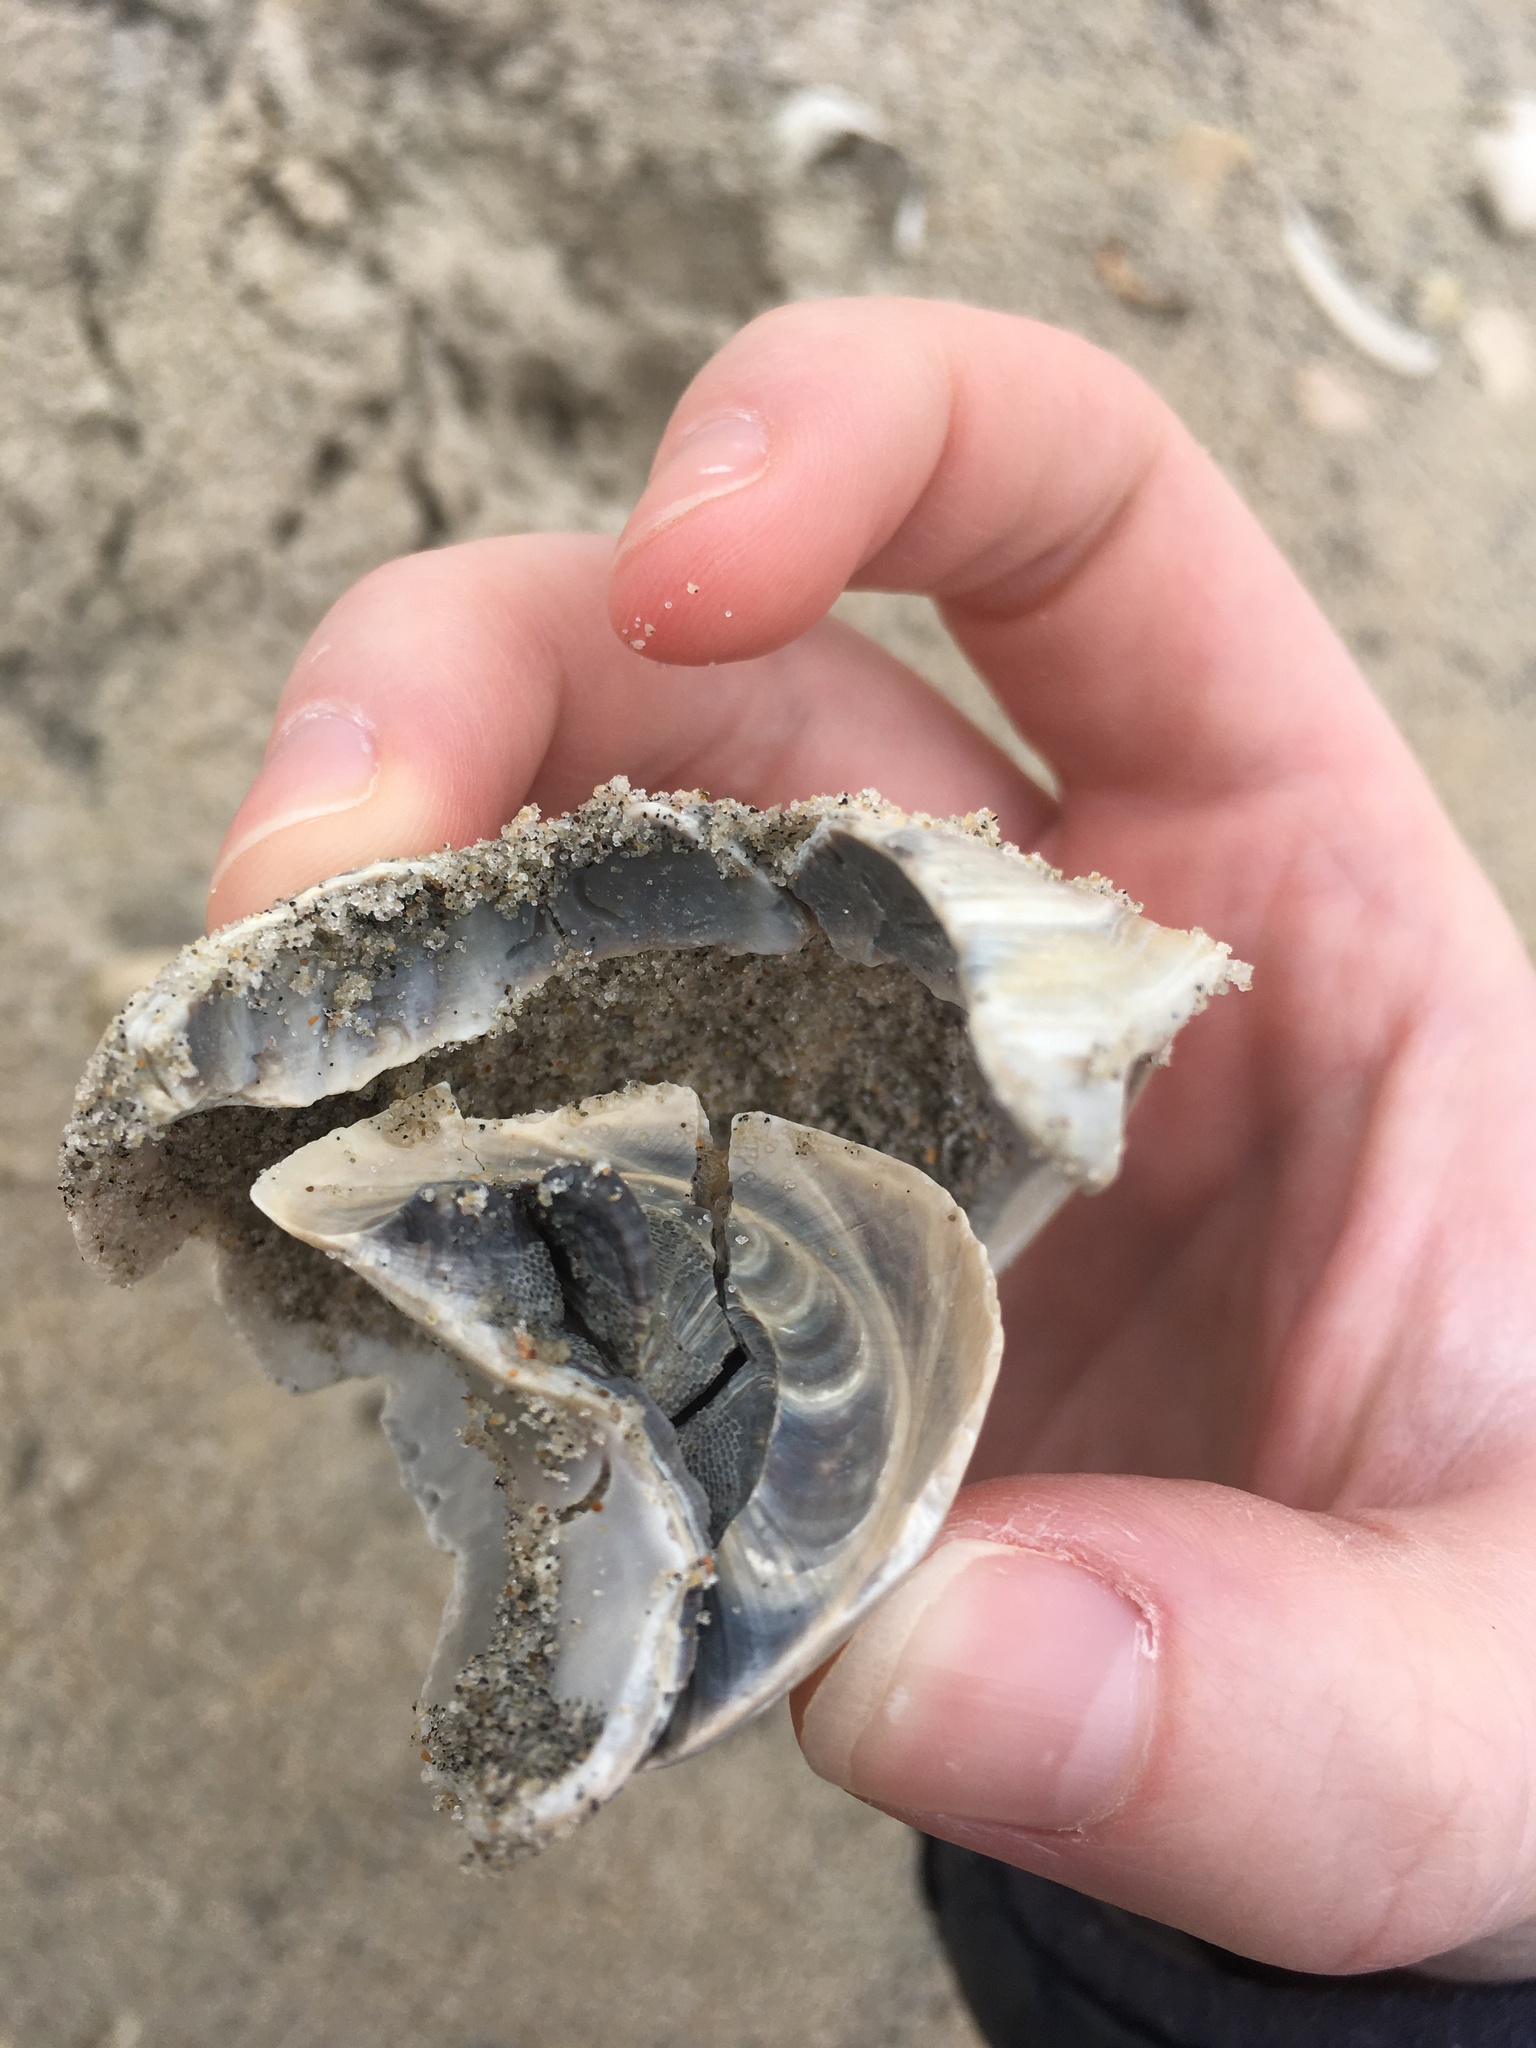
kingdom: Animalia
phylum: Mollusca
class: Gastropoda
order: Littorinimorpha
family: Naticidae
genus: Neverita
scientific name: Neverita duplicata
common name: Lobed moonsnail
